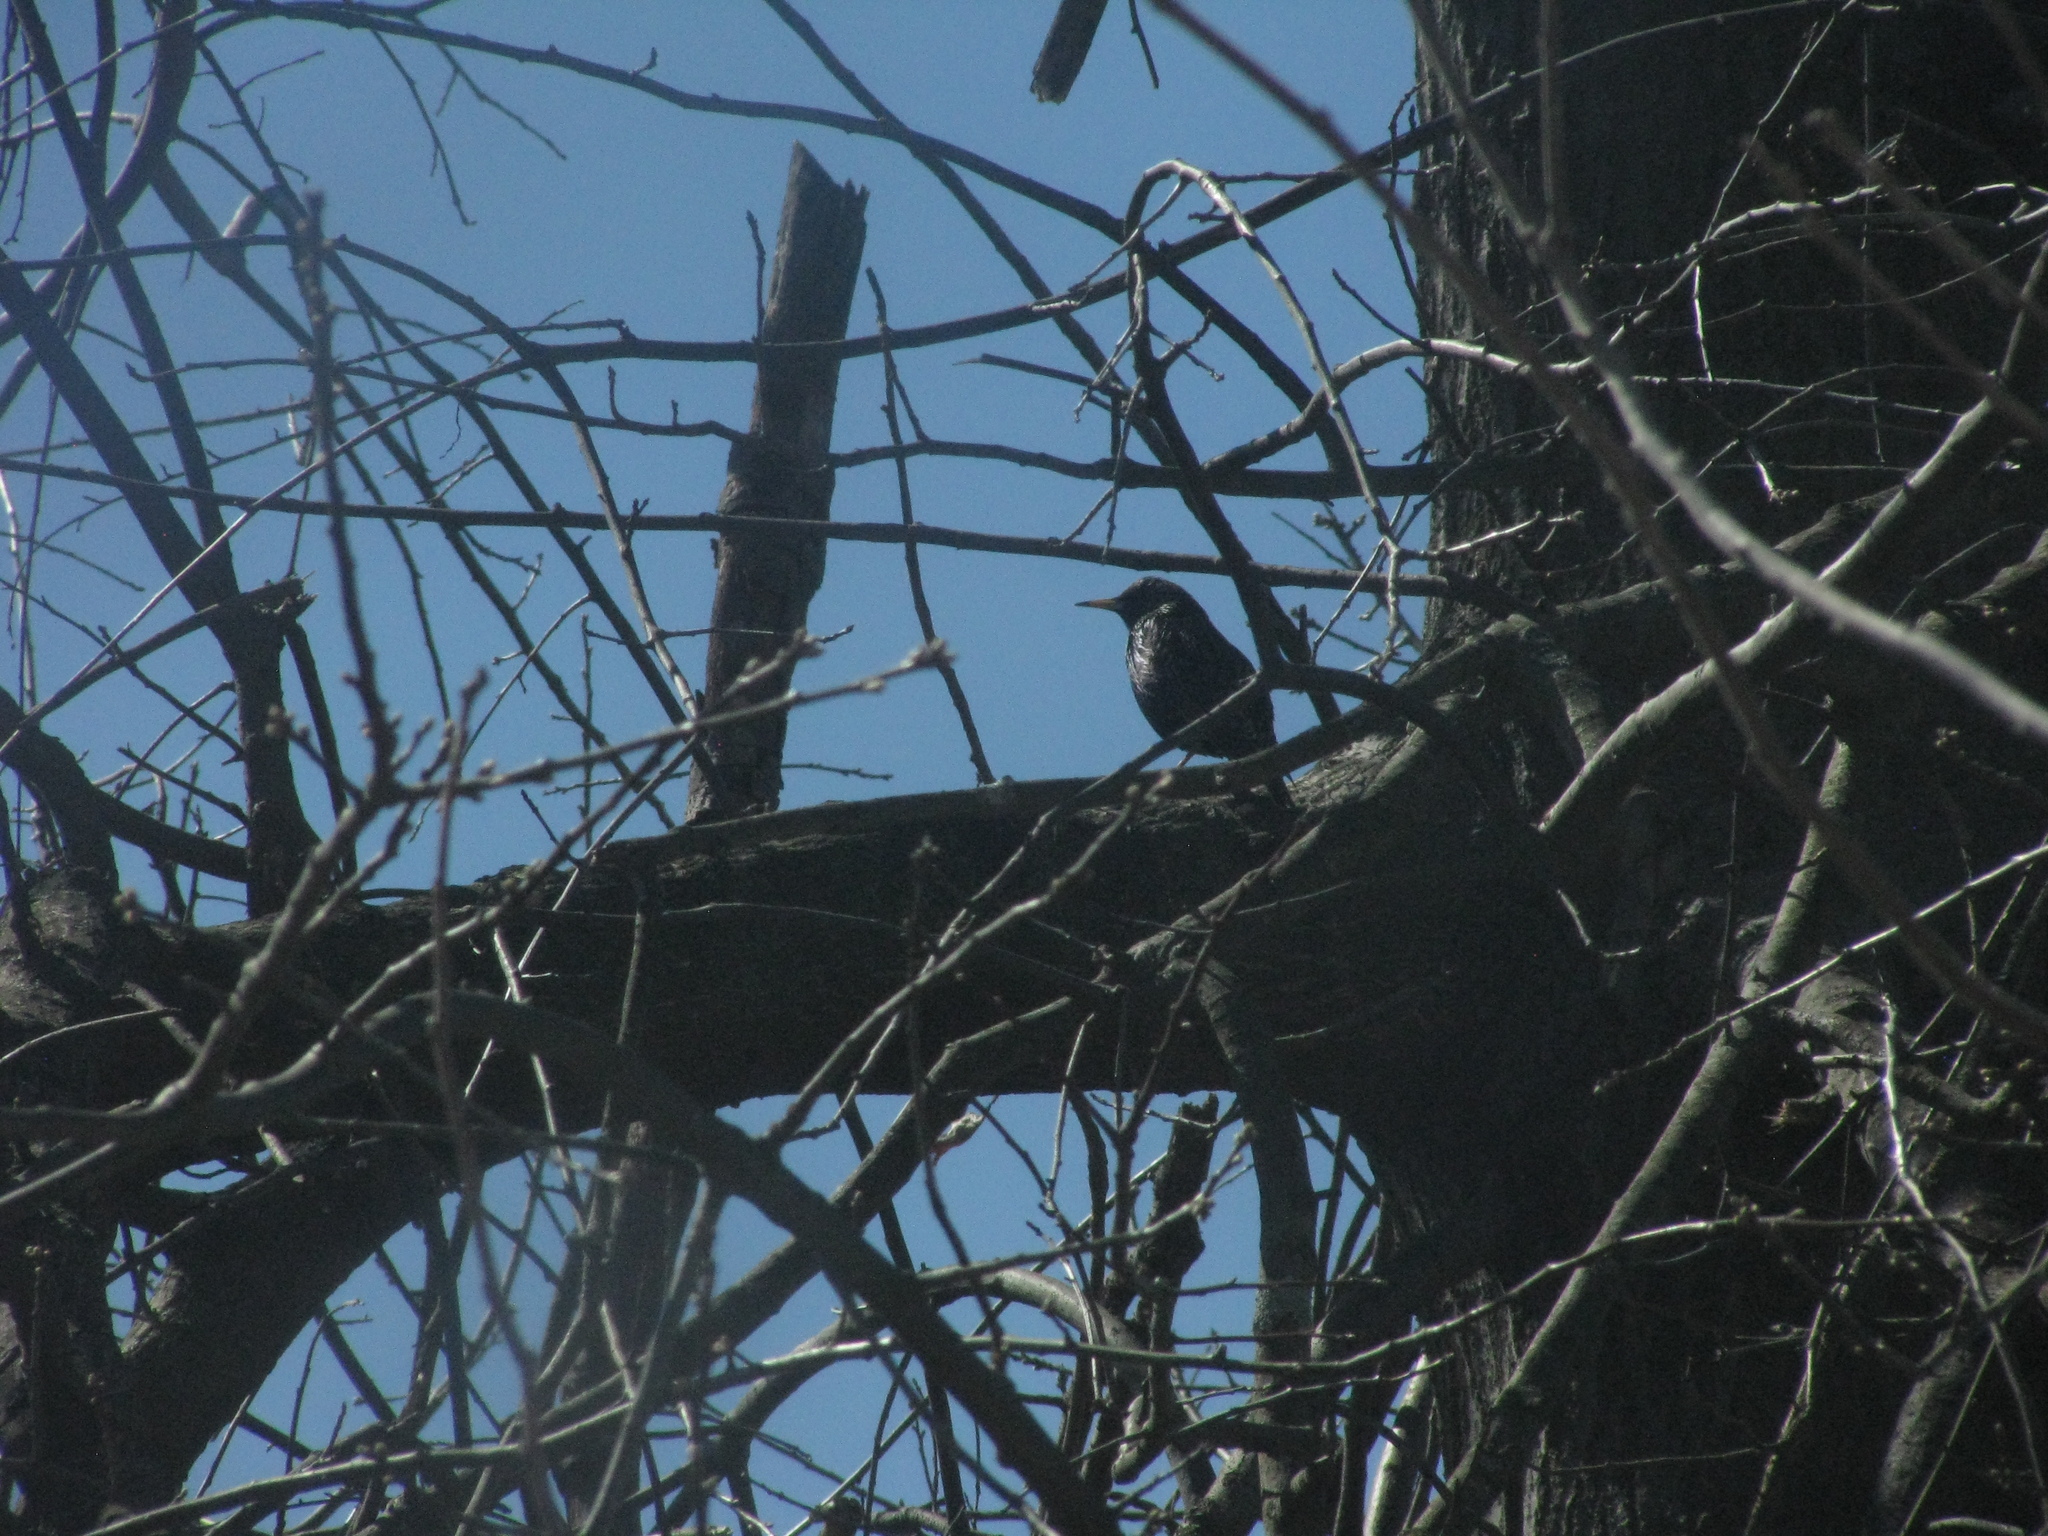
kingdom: Animalia
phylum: Chordata
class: Aves
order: Passeriformes
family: Sturnidae
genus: Sturnus
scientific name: Sturnus vulgaris
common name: Common starling
